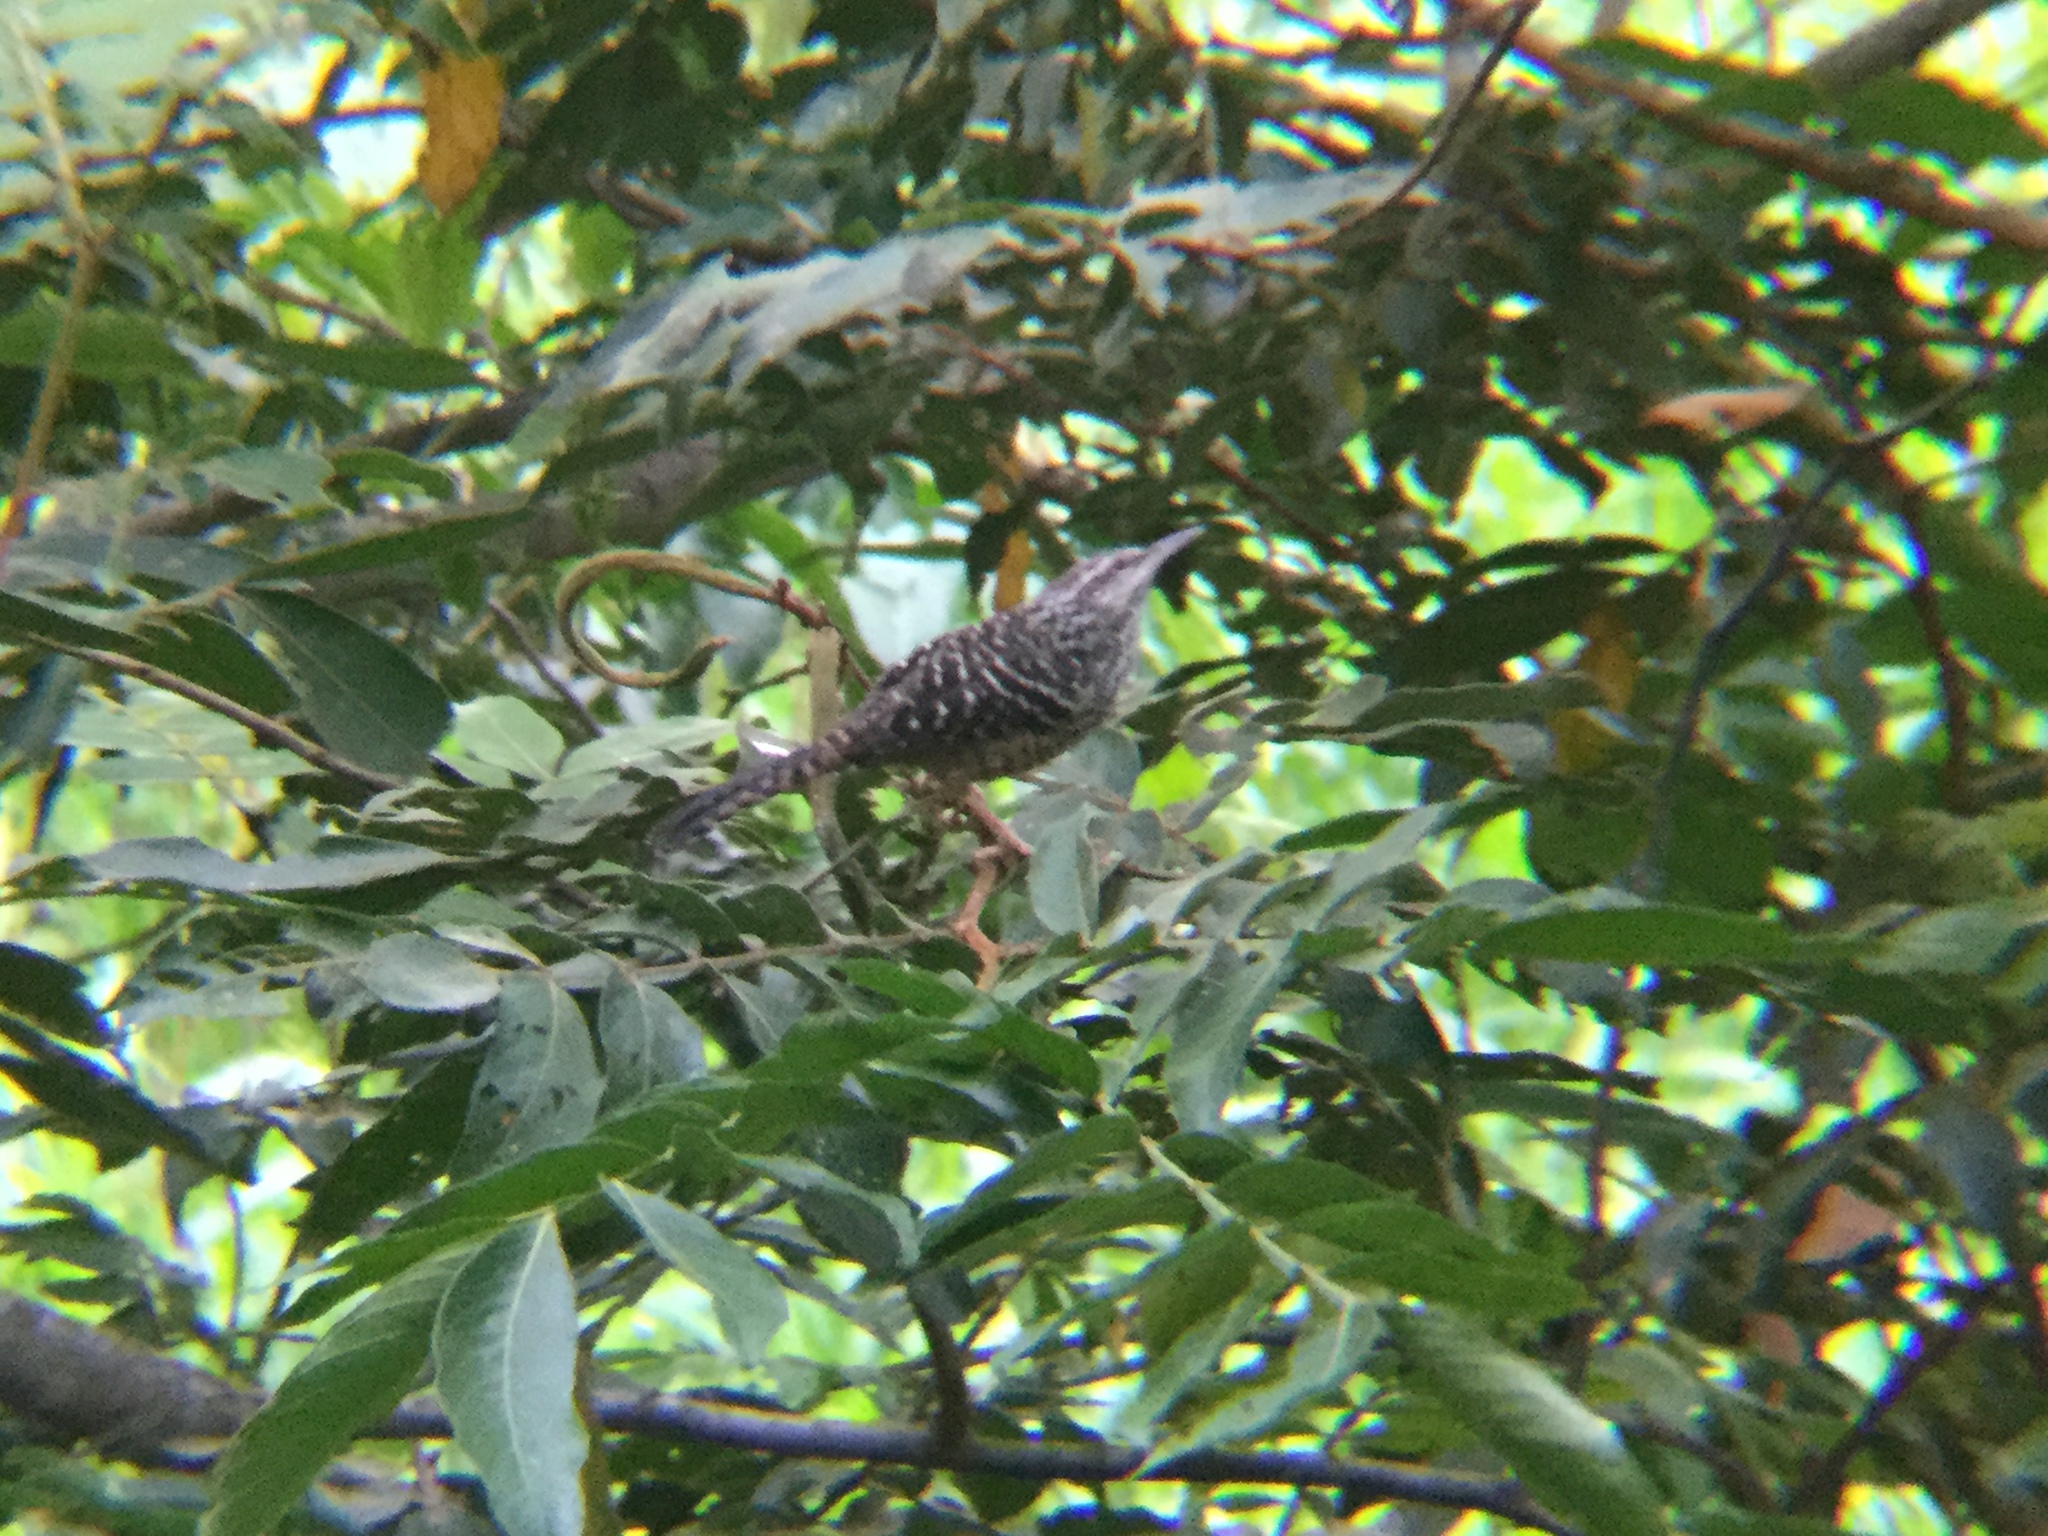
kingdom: Animalia
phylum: Chordata
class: Aves
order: Passeriformes
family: Troglodytidae
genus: Campylorhynchus
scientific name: Campylorhynchus zonatus
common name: Band-backed wren
